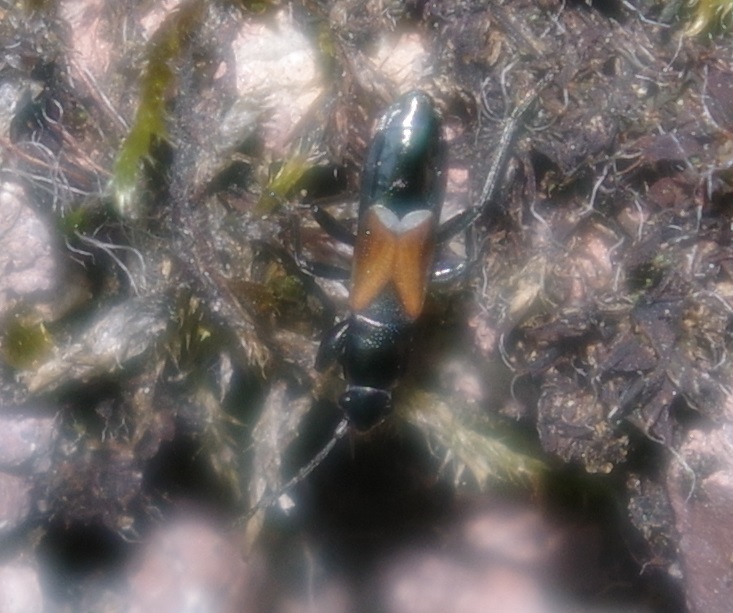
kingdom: Animalia
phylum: Arthropoda
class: Insecta
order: Hemiptera
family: Rhyparochromidae
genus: Pterotmetus
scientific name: Pterotmetus staphyliniformis
